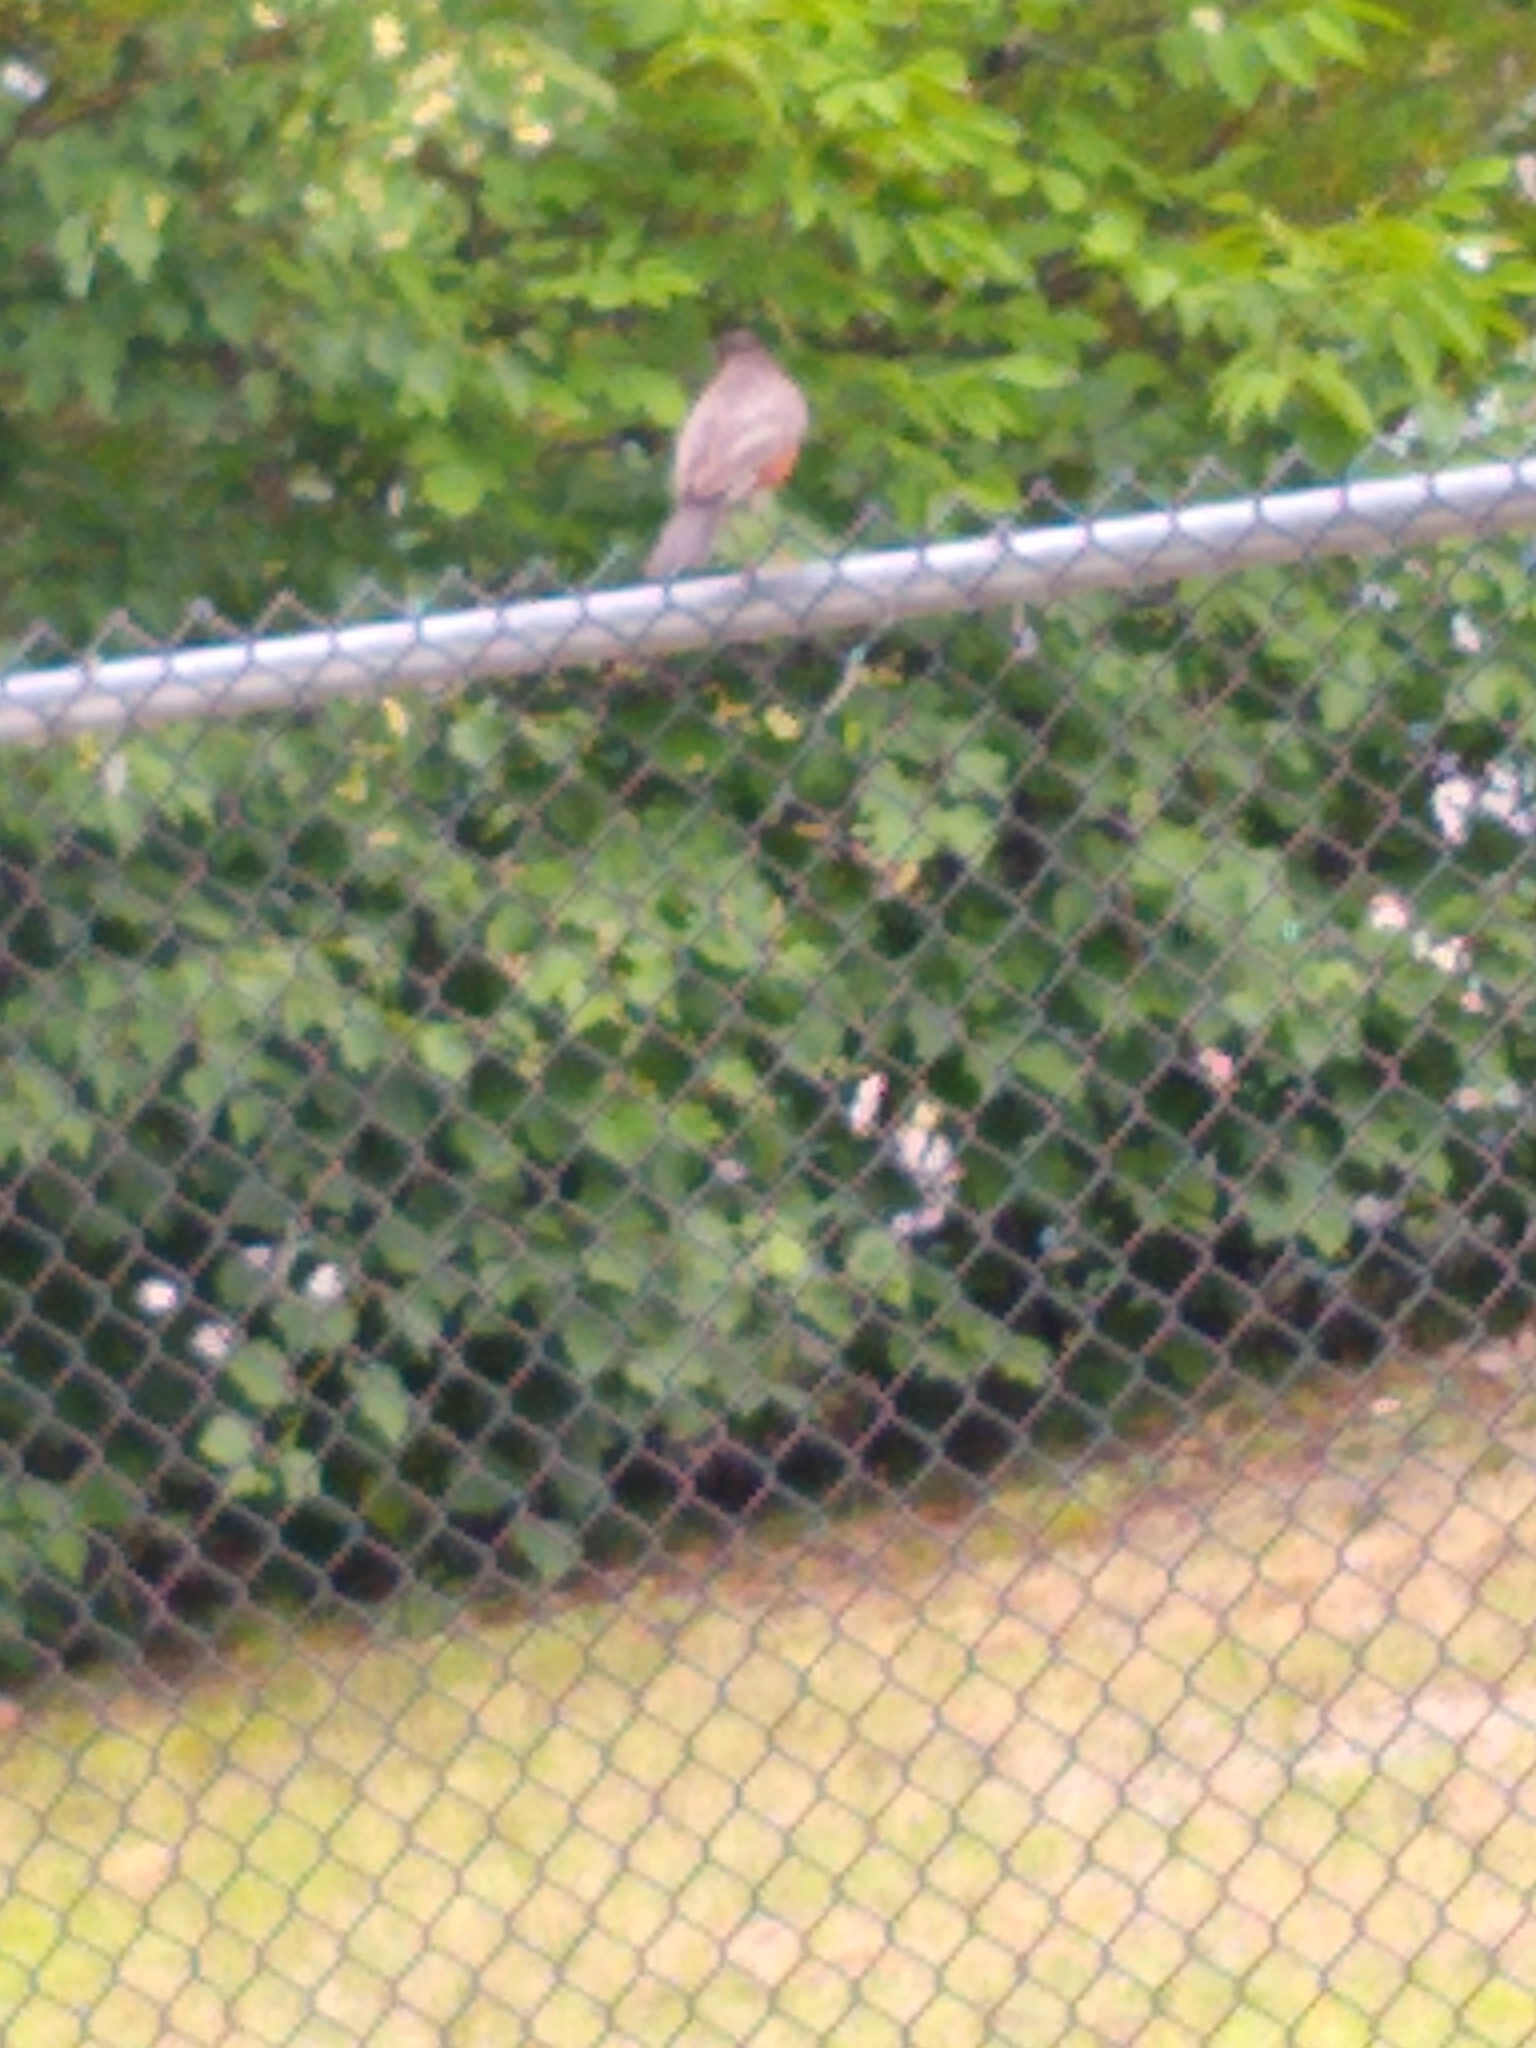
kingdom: Animalia
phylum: Chordata
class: Aves
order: Passeriformes
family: Turdidae
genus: Turdus
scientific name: Turdus migratorius
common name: American robin
